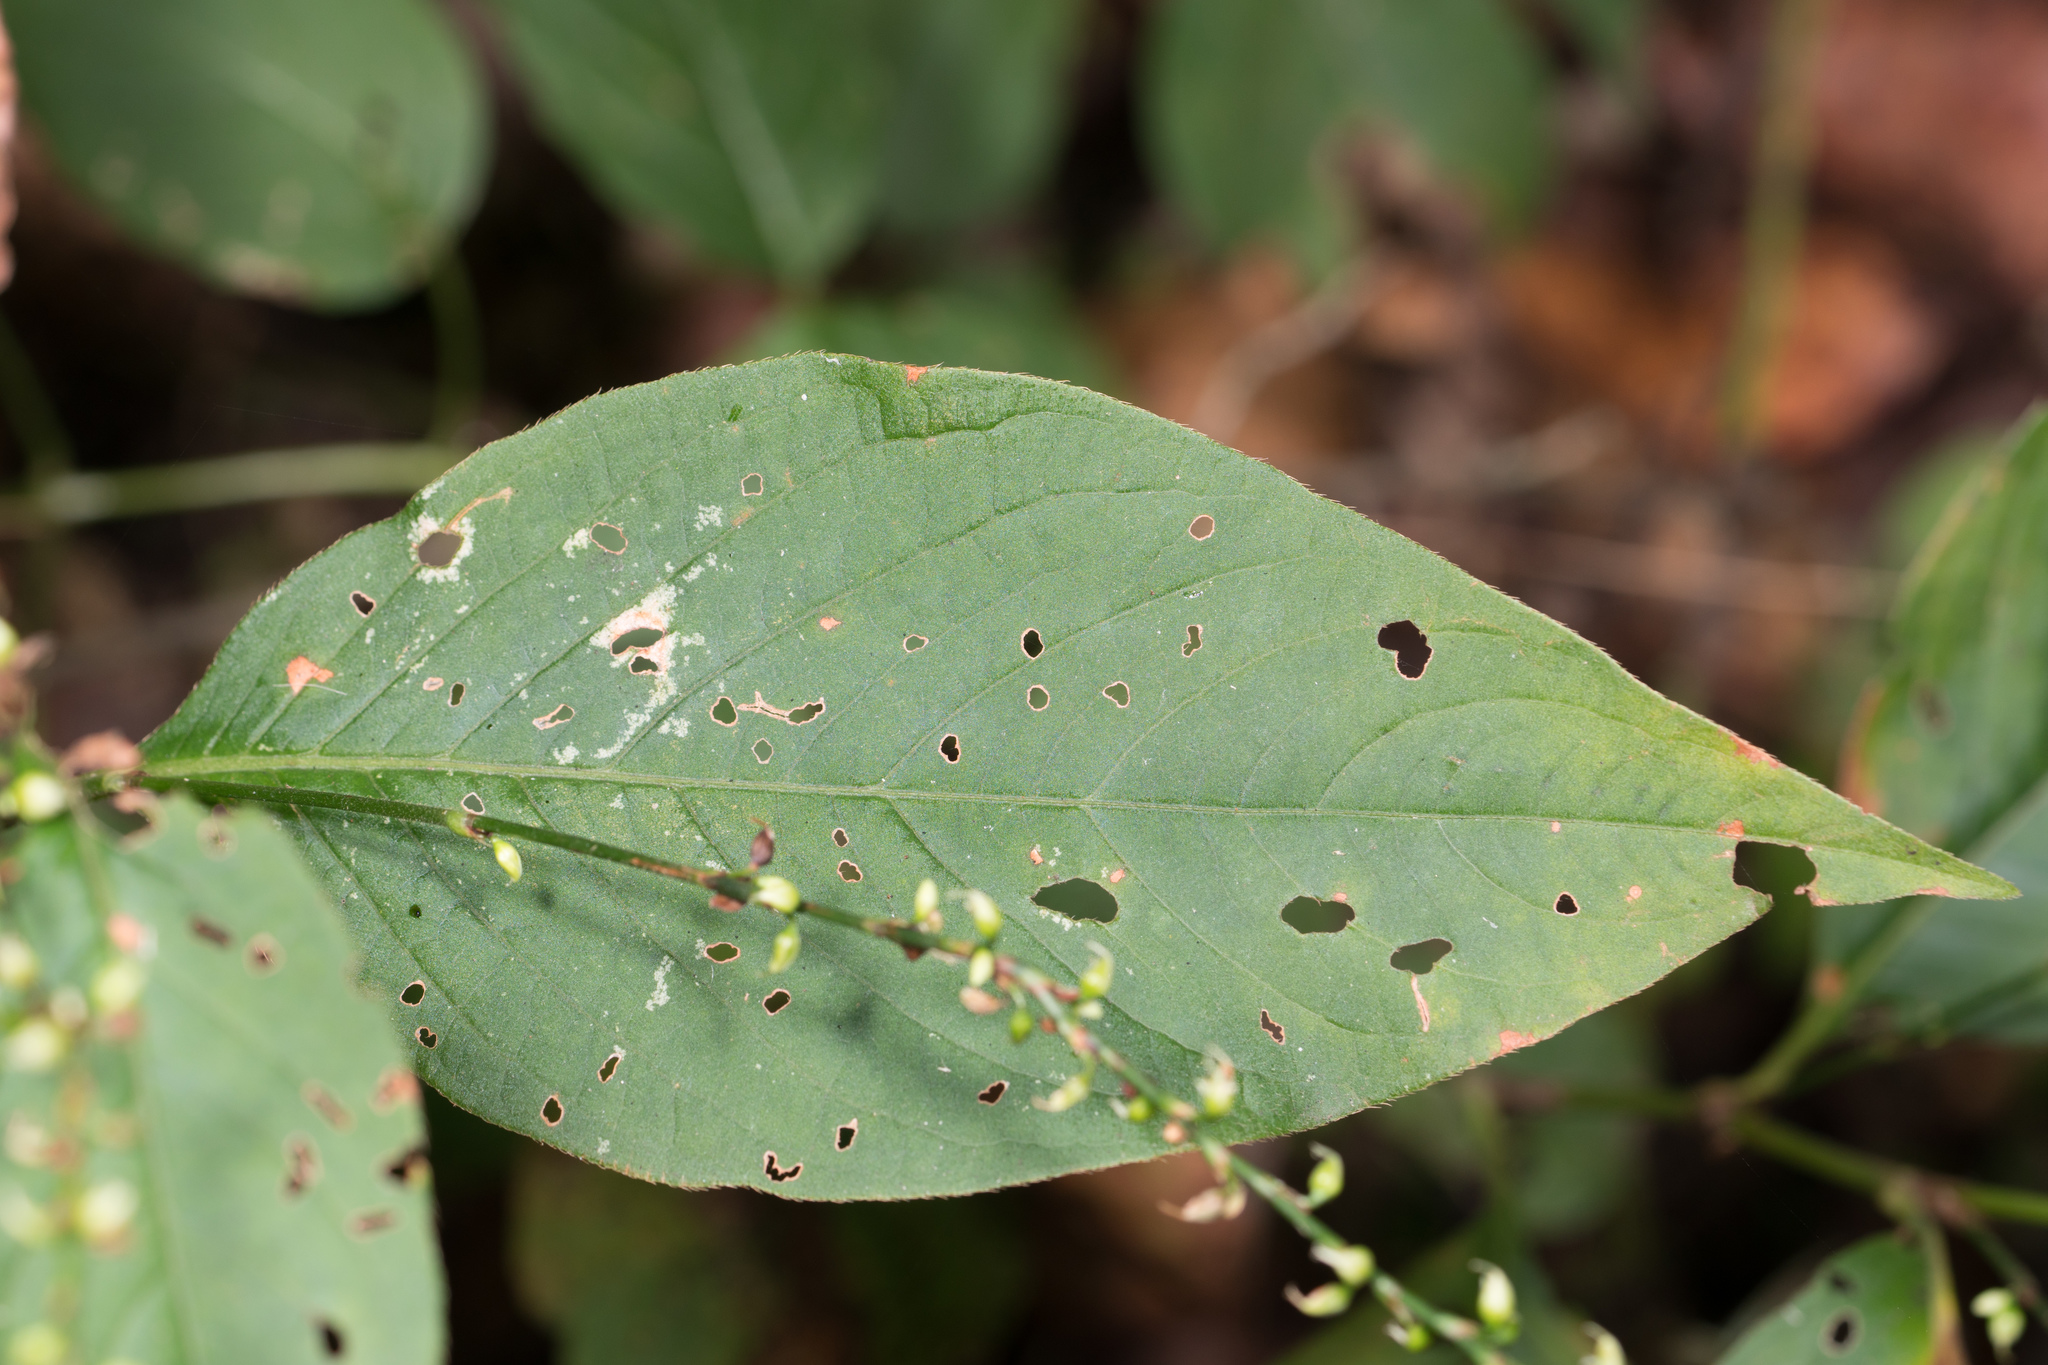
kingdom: Plantae
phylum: Tracheophyta
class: Magnoliopsida
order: Caryophyllales
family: Polygonaceae
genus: Persicaria
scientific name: Persicaria virginiana
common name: Jumpseed
